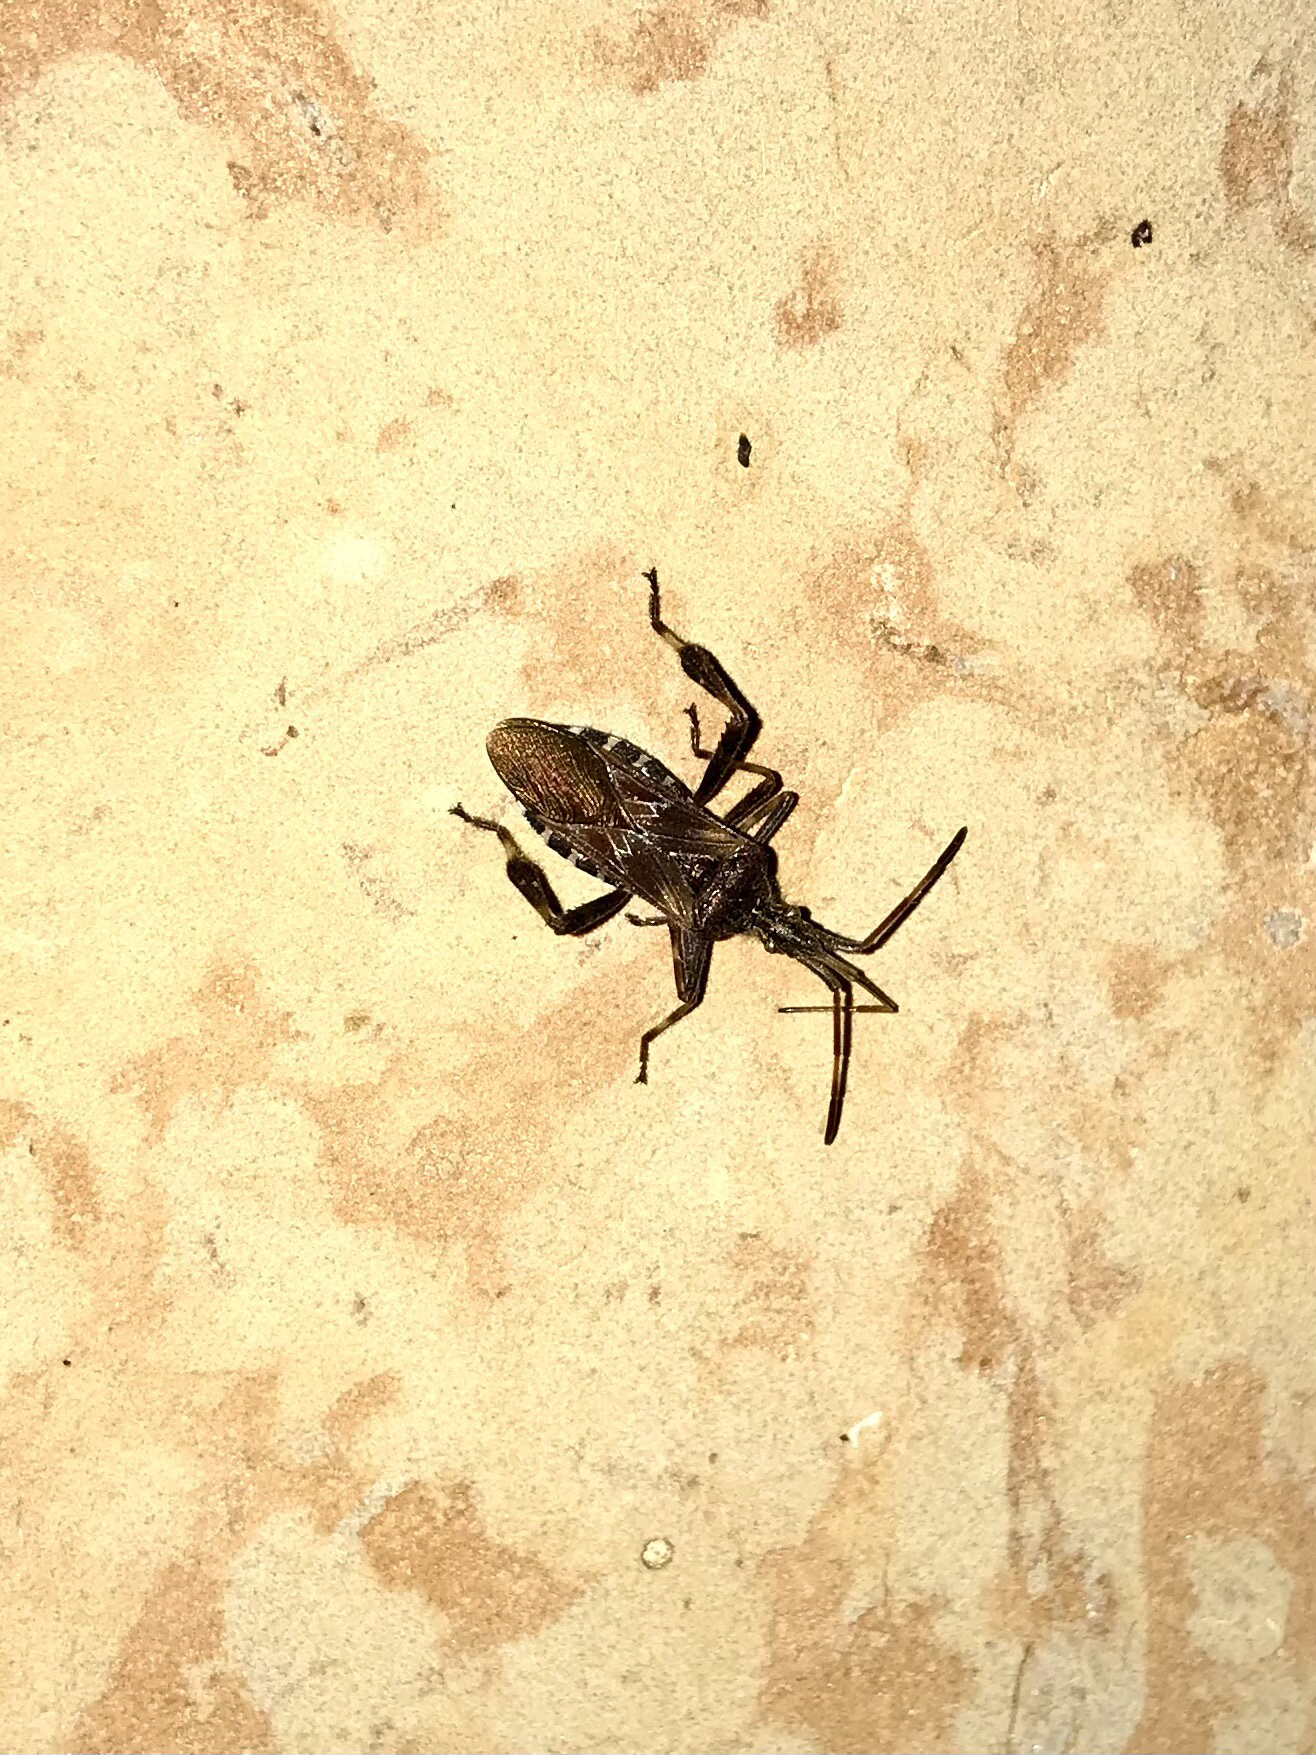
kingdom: Animalia
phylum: Arthropoda
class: Insecta
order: Hemiptera
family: Coreidae
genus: Leptoglossus
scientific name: Leptoglossus occidentalis
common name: Western conifer-seed bug
